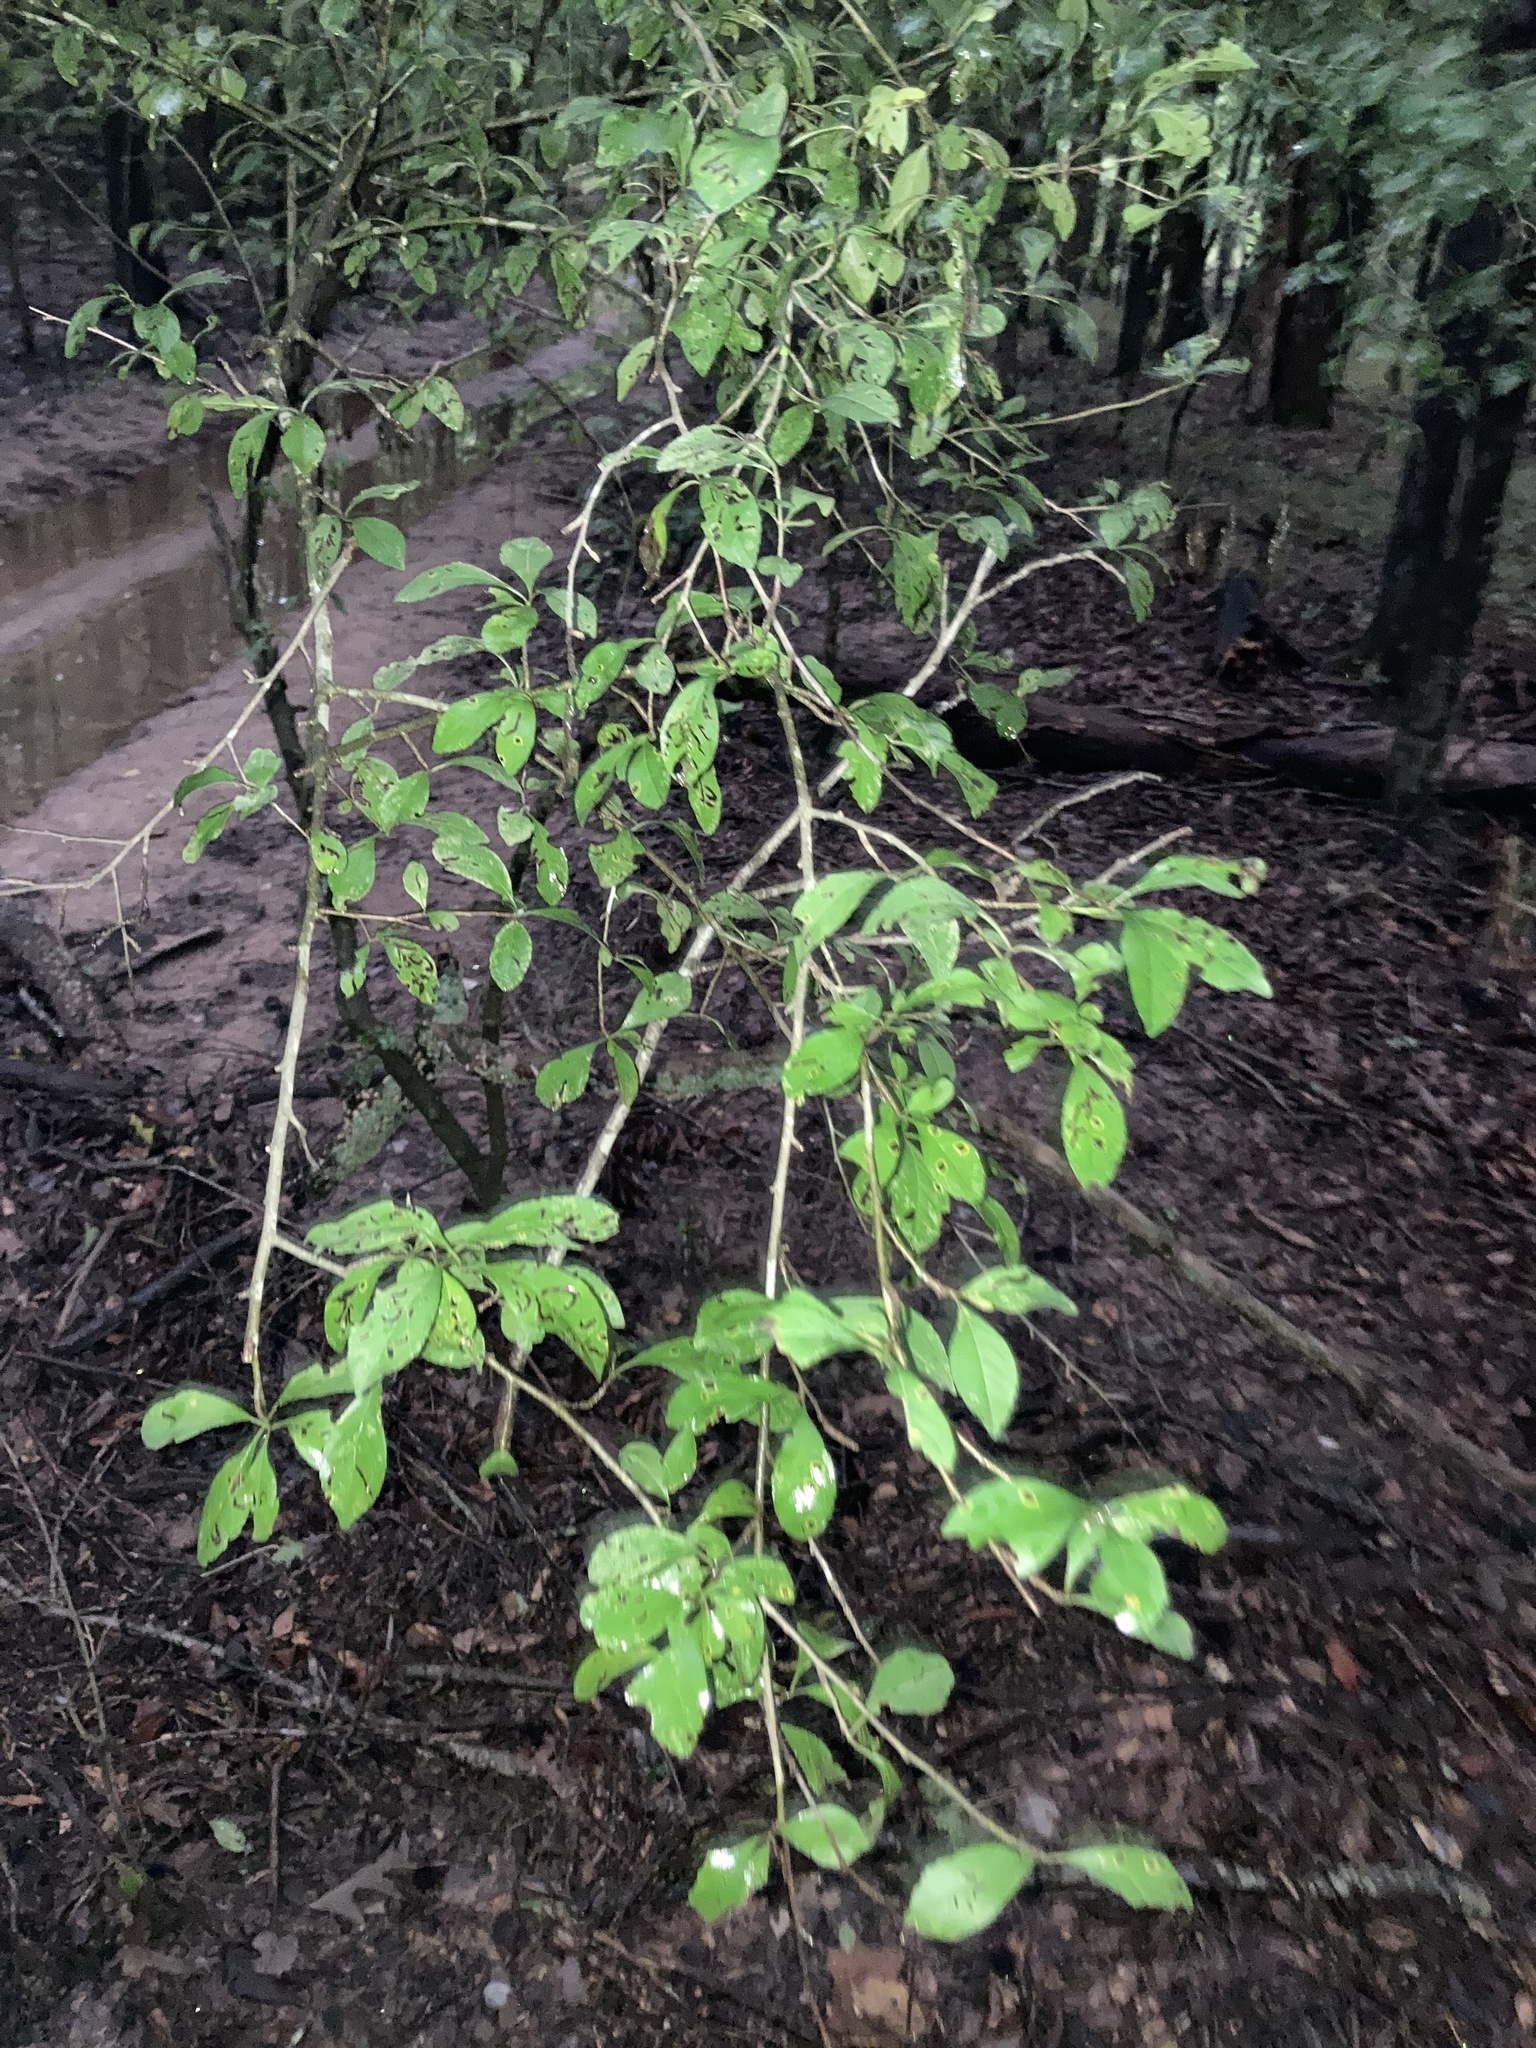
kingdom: Plantae
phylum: Tracheophyta
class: Magnoliopsida
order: Aquifoliales
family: Aquifoliaceae
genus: Ilex
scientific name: Ilex decidua
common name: Possum-haw
